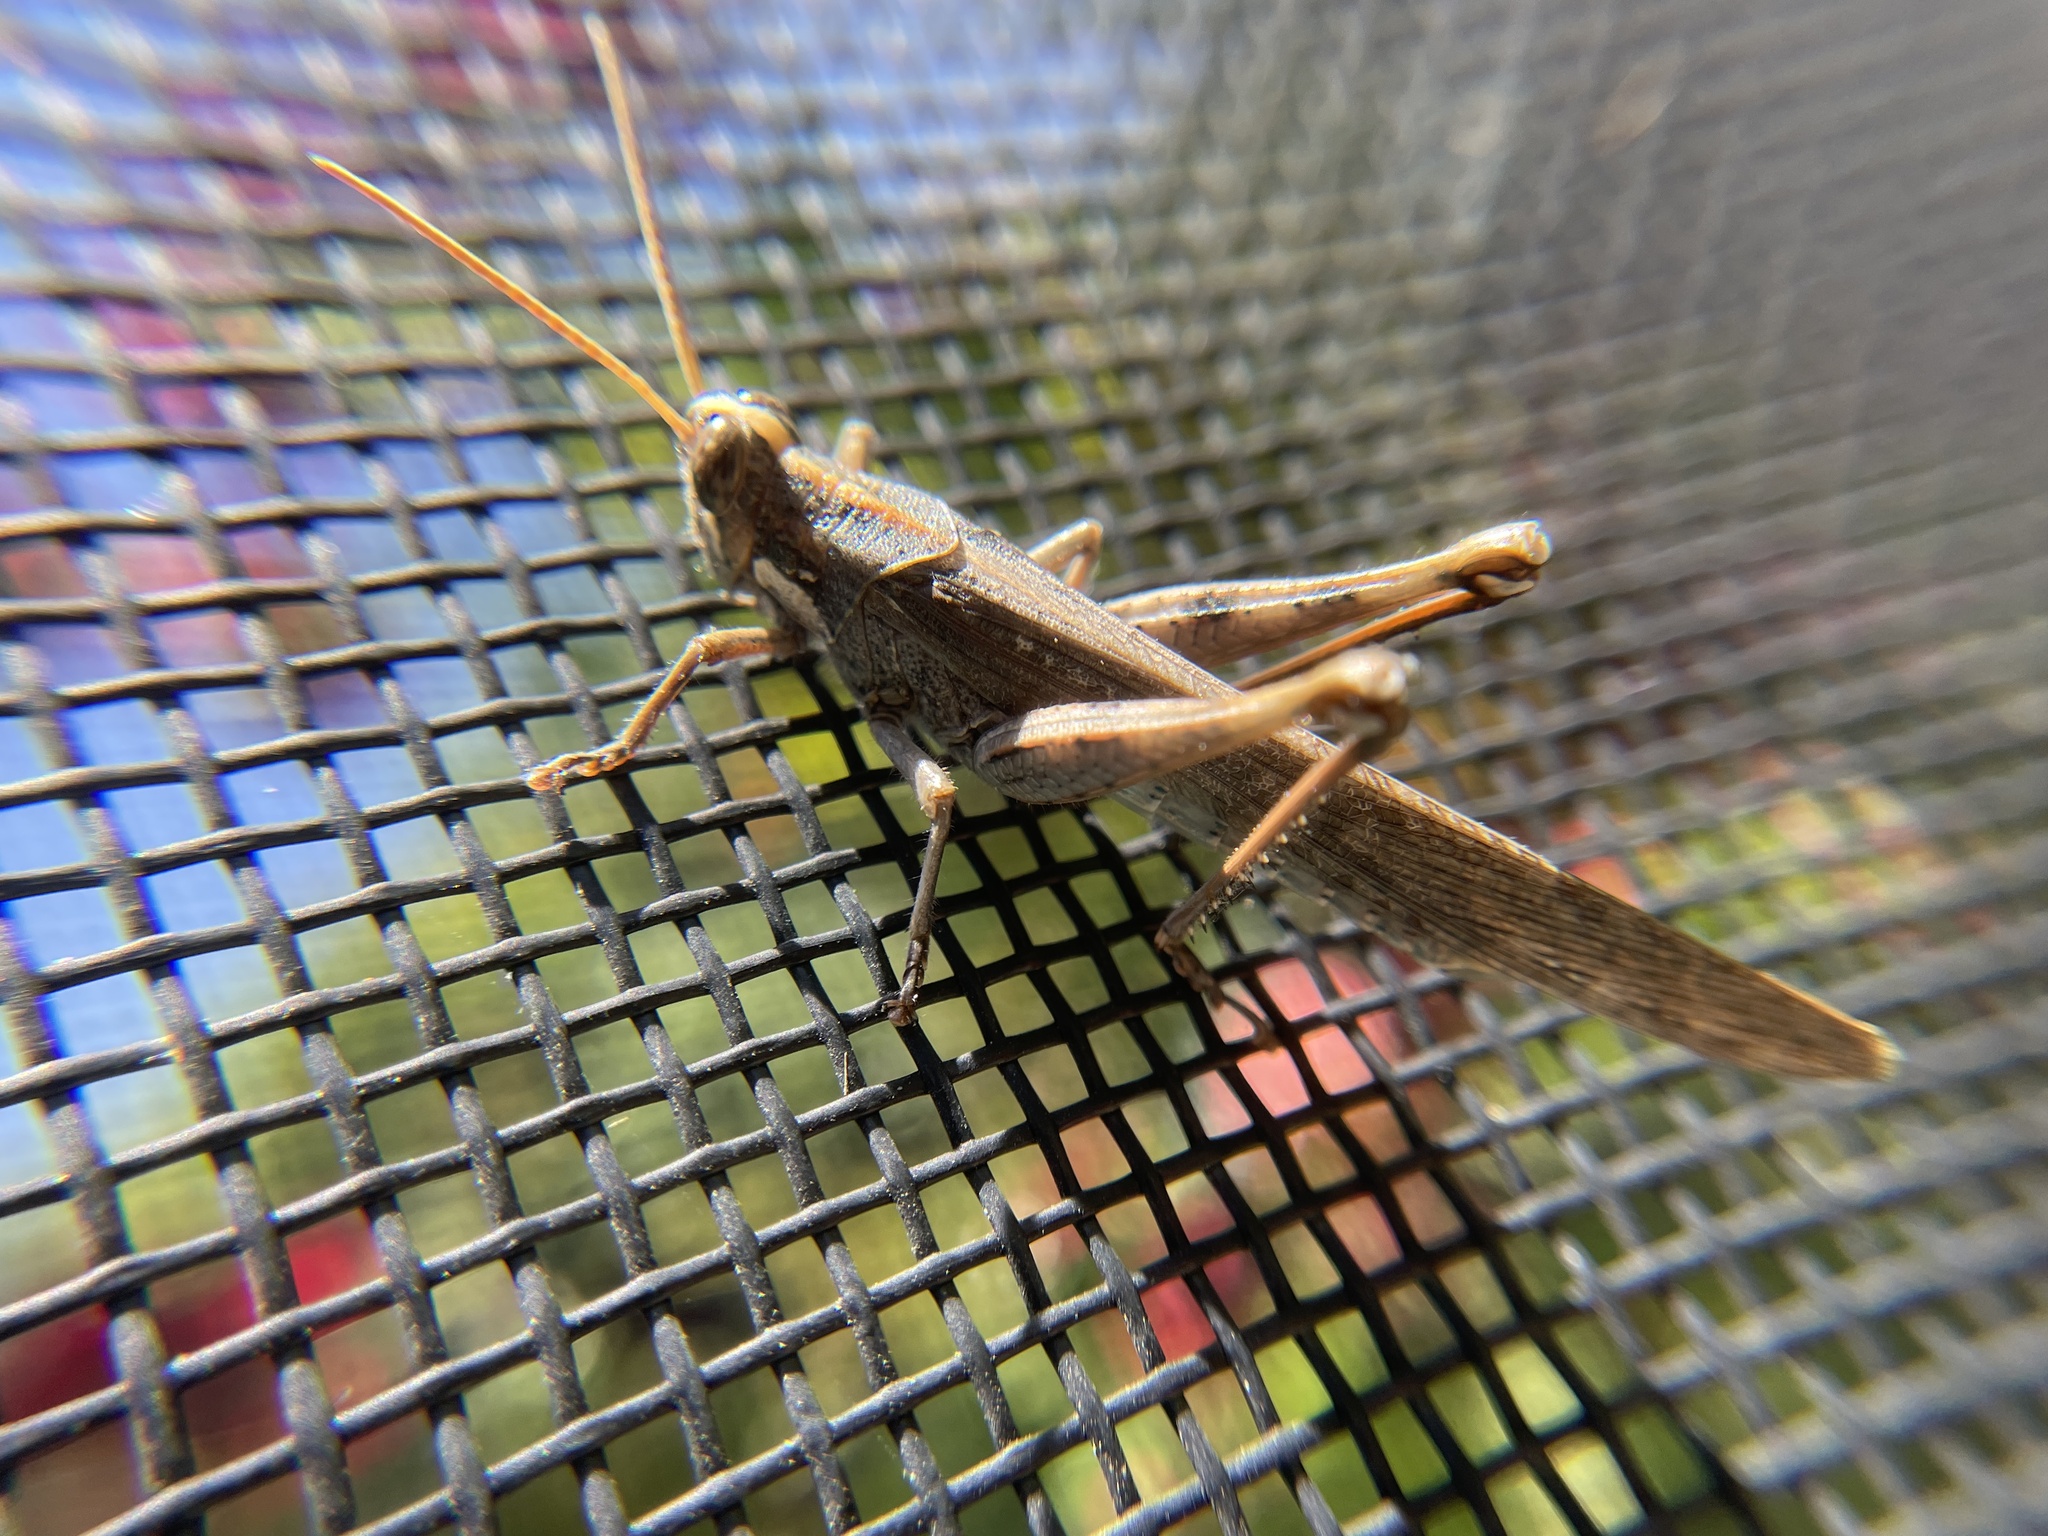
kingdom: Animalia
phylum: Arthropoda
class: Insecta
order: Orthoptera
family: Acrididae
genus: Schistocerca
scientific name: Schistocerca nitens
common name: Vagrant grasshopper
